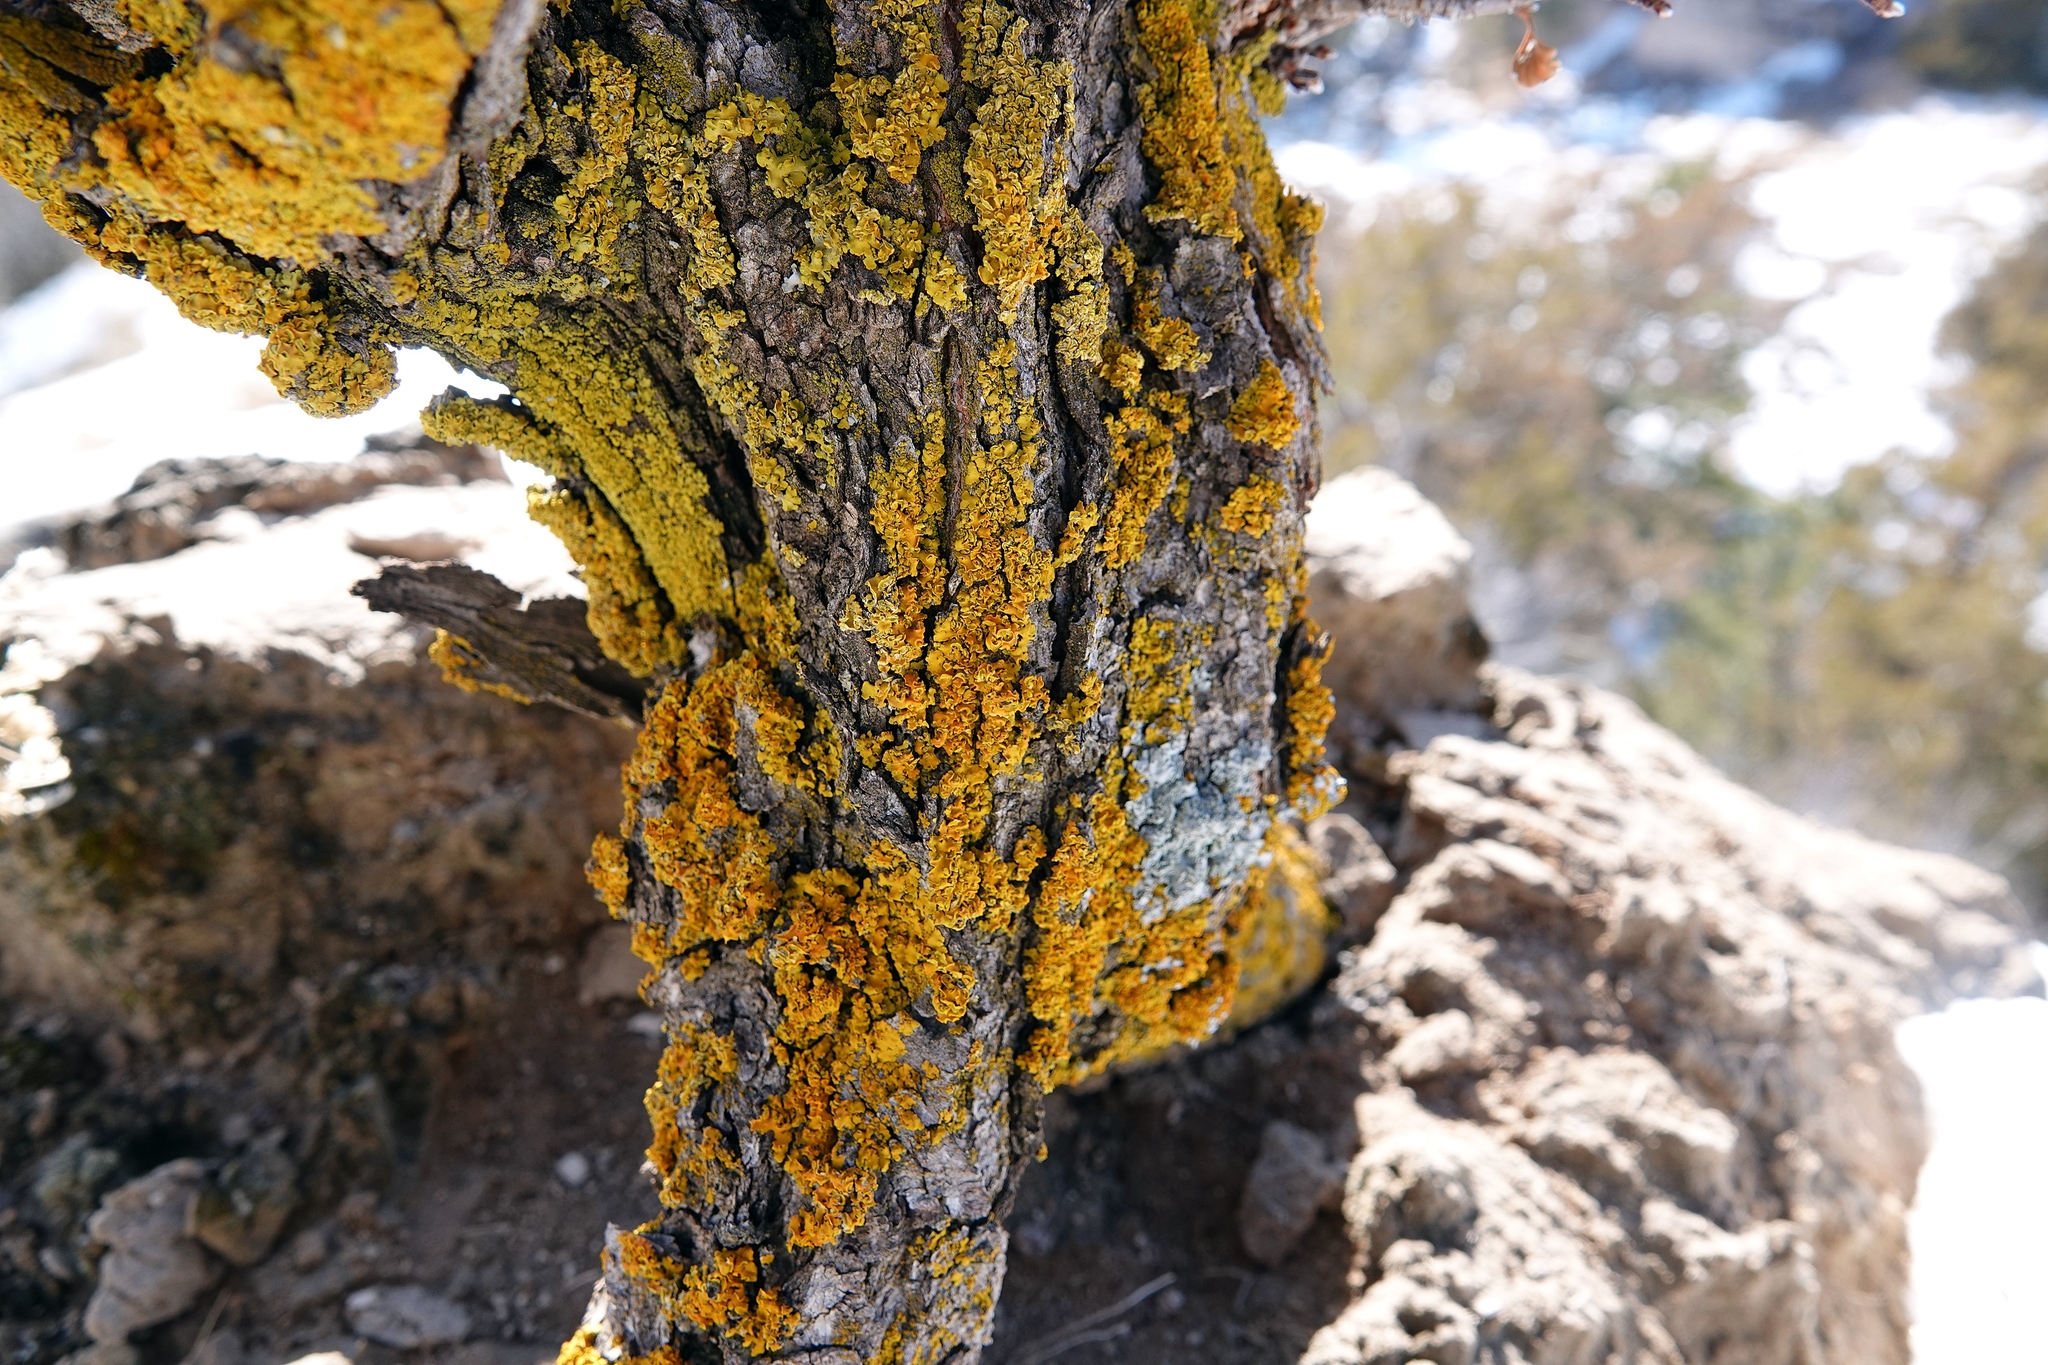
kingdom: Fungi
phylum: Ascomycota
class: Lecanoromycetes
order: Teloschistales
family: Teloschistaceae
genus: Oxneria
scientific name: Oxneria fallax
